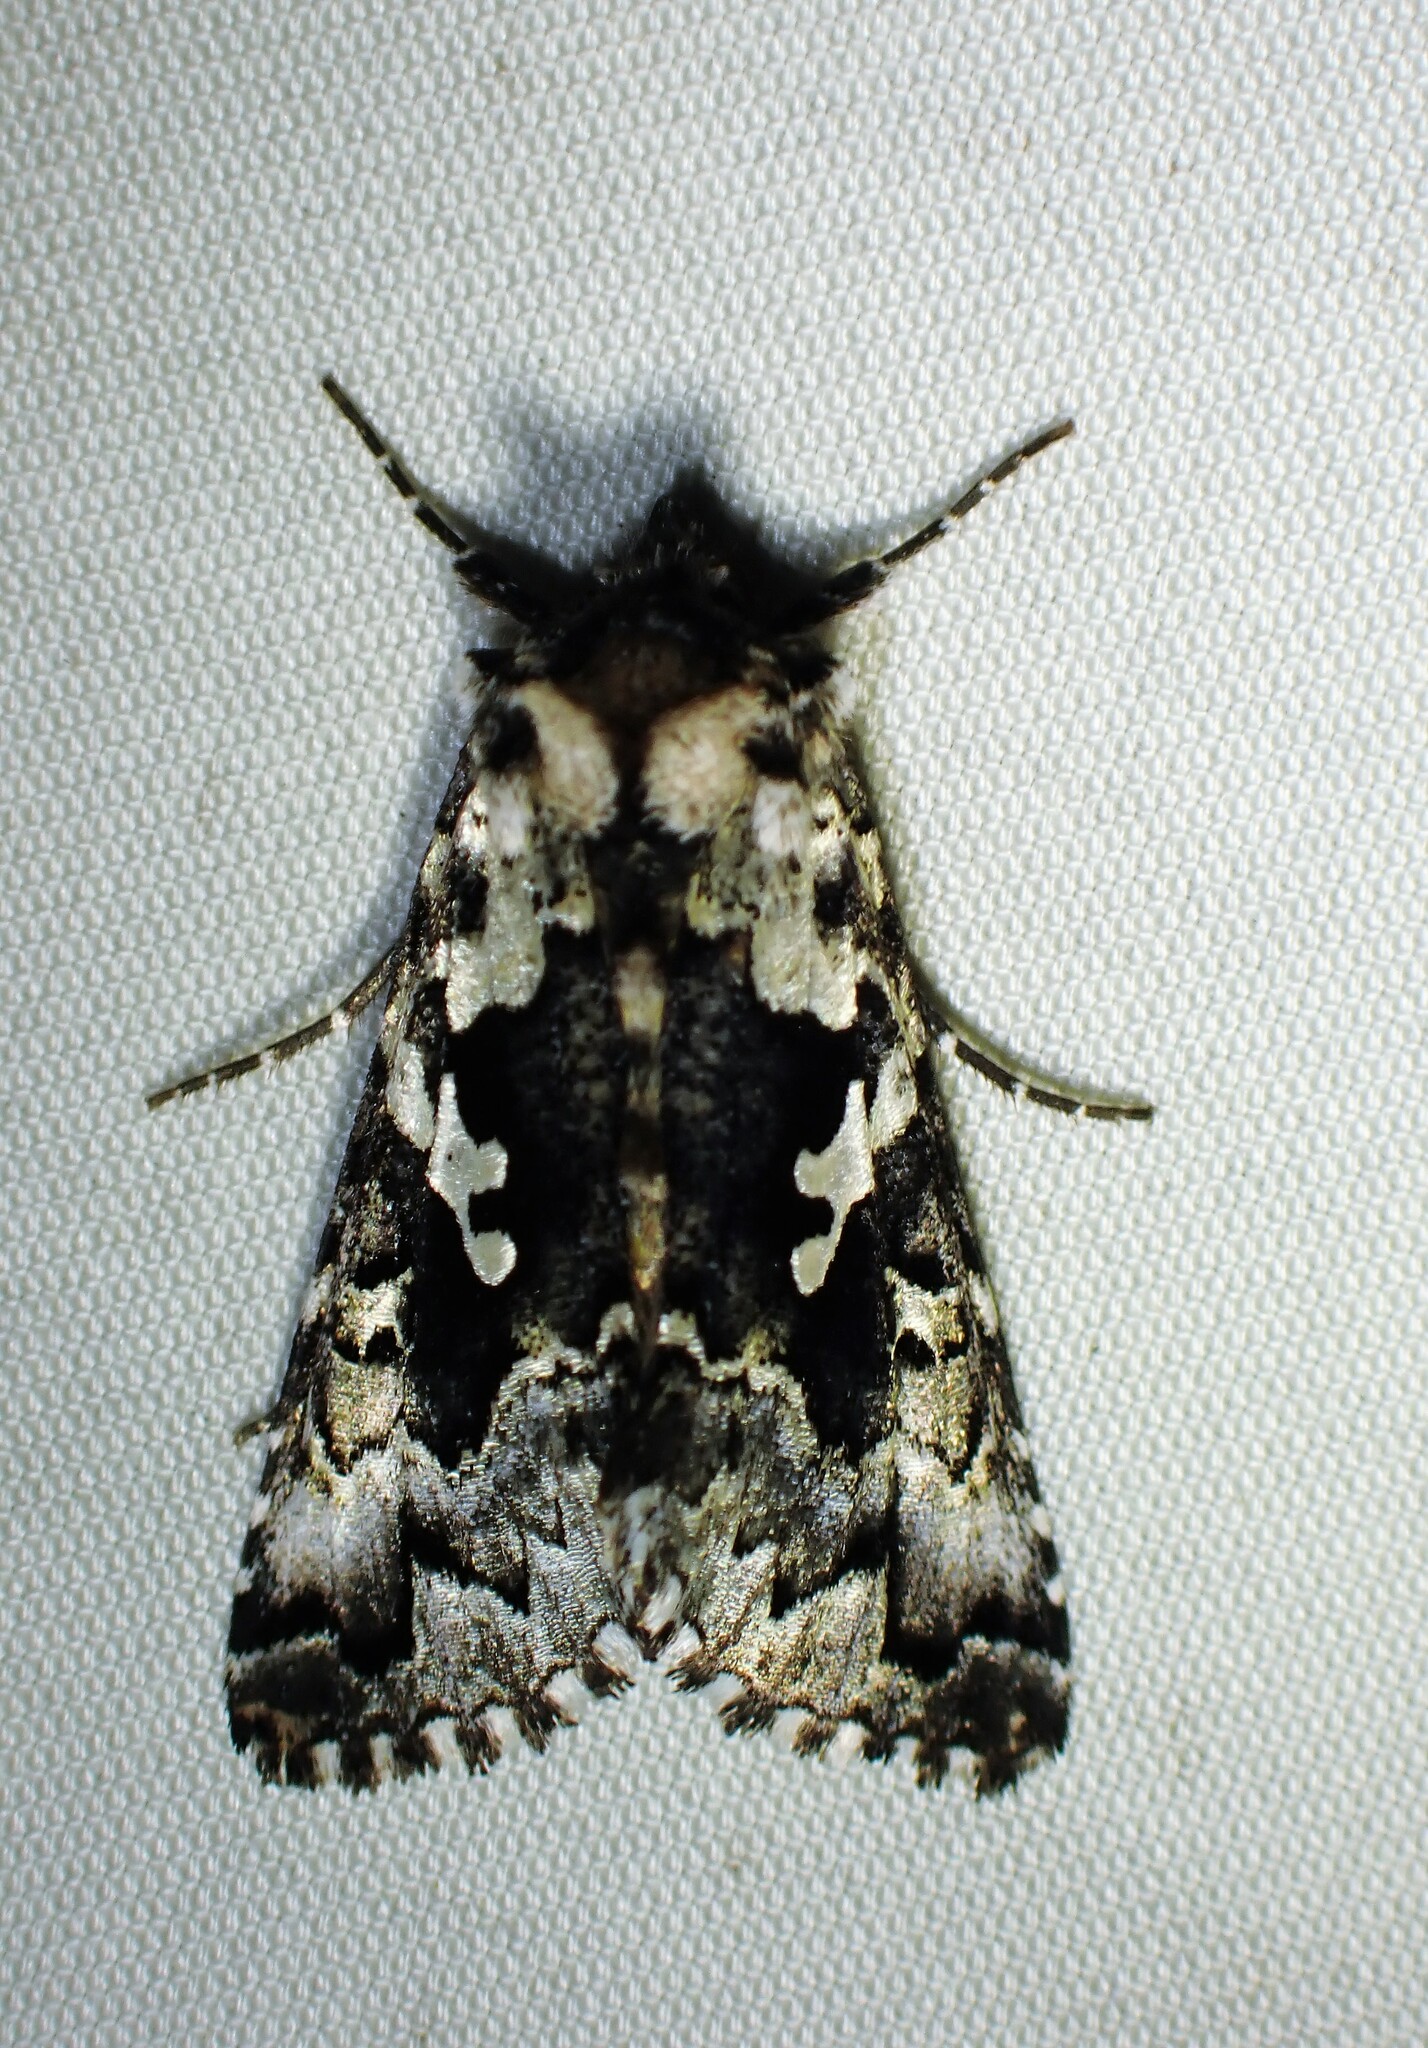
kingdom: Animalia
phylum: Arthropoda
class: Insecta
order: Lepidoptera
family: Noctuidae
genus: Syngrapha
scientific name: Syngrapha rectangula
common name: Angulated cutworm
